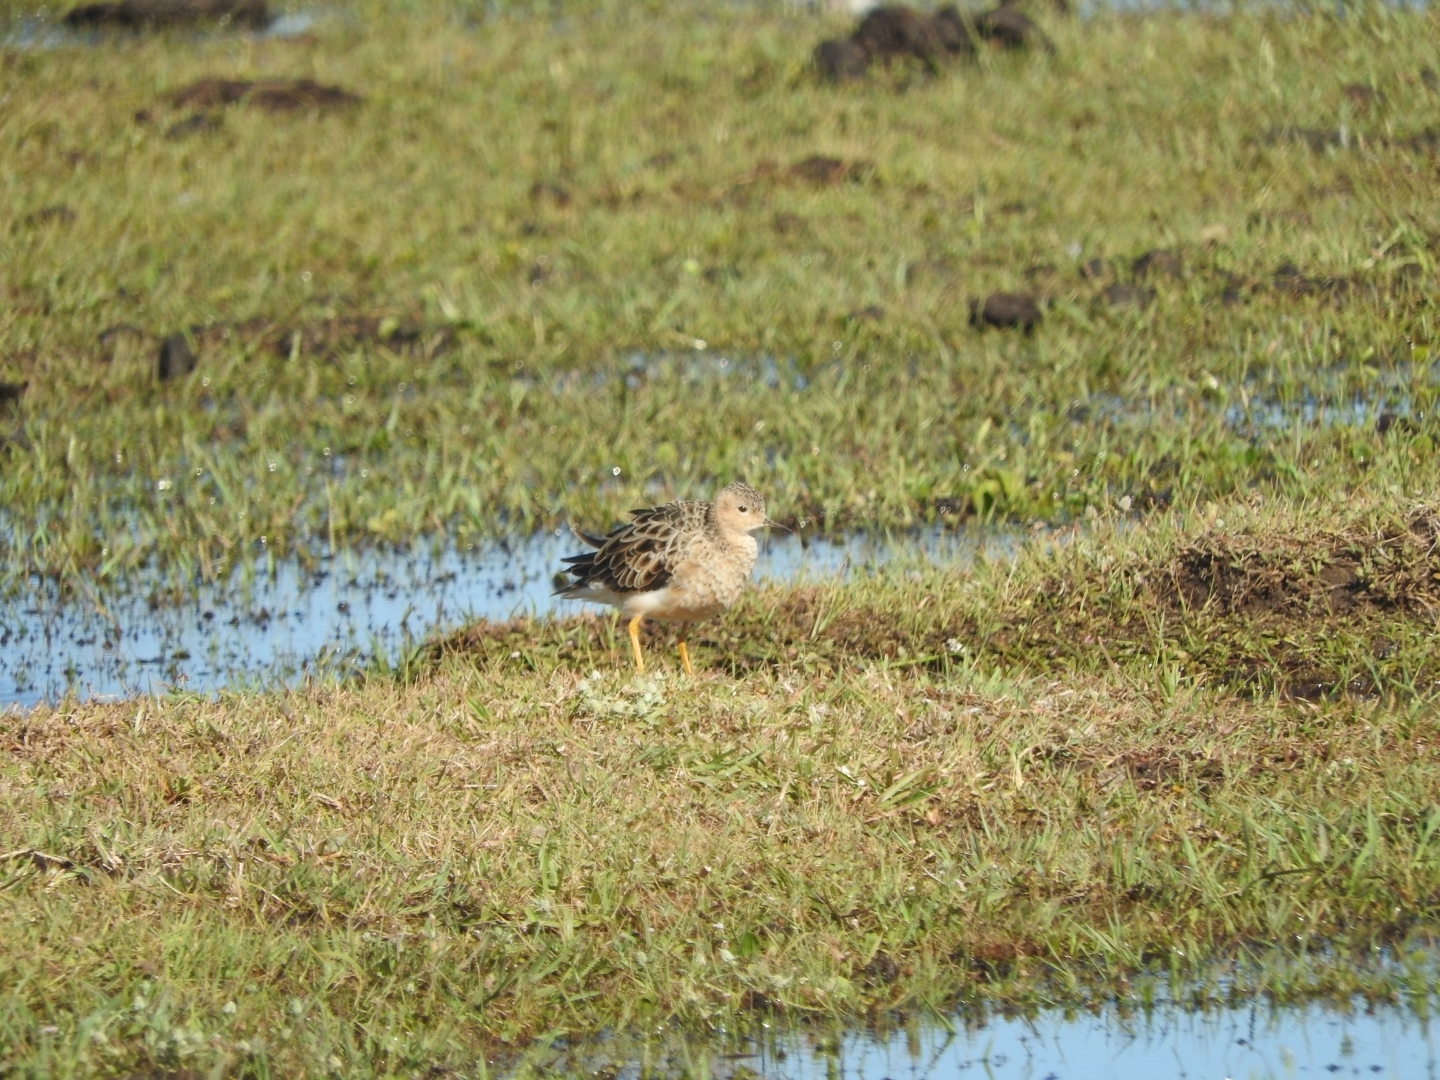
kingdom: Animalia
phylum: Chordata
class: Aves
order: Charadriiformes
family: Scolopacidae
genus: Calidris
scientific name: Calidris subruficollis
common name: Buff-breasted sandpiper
